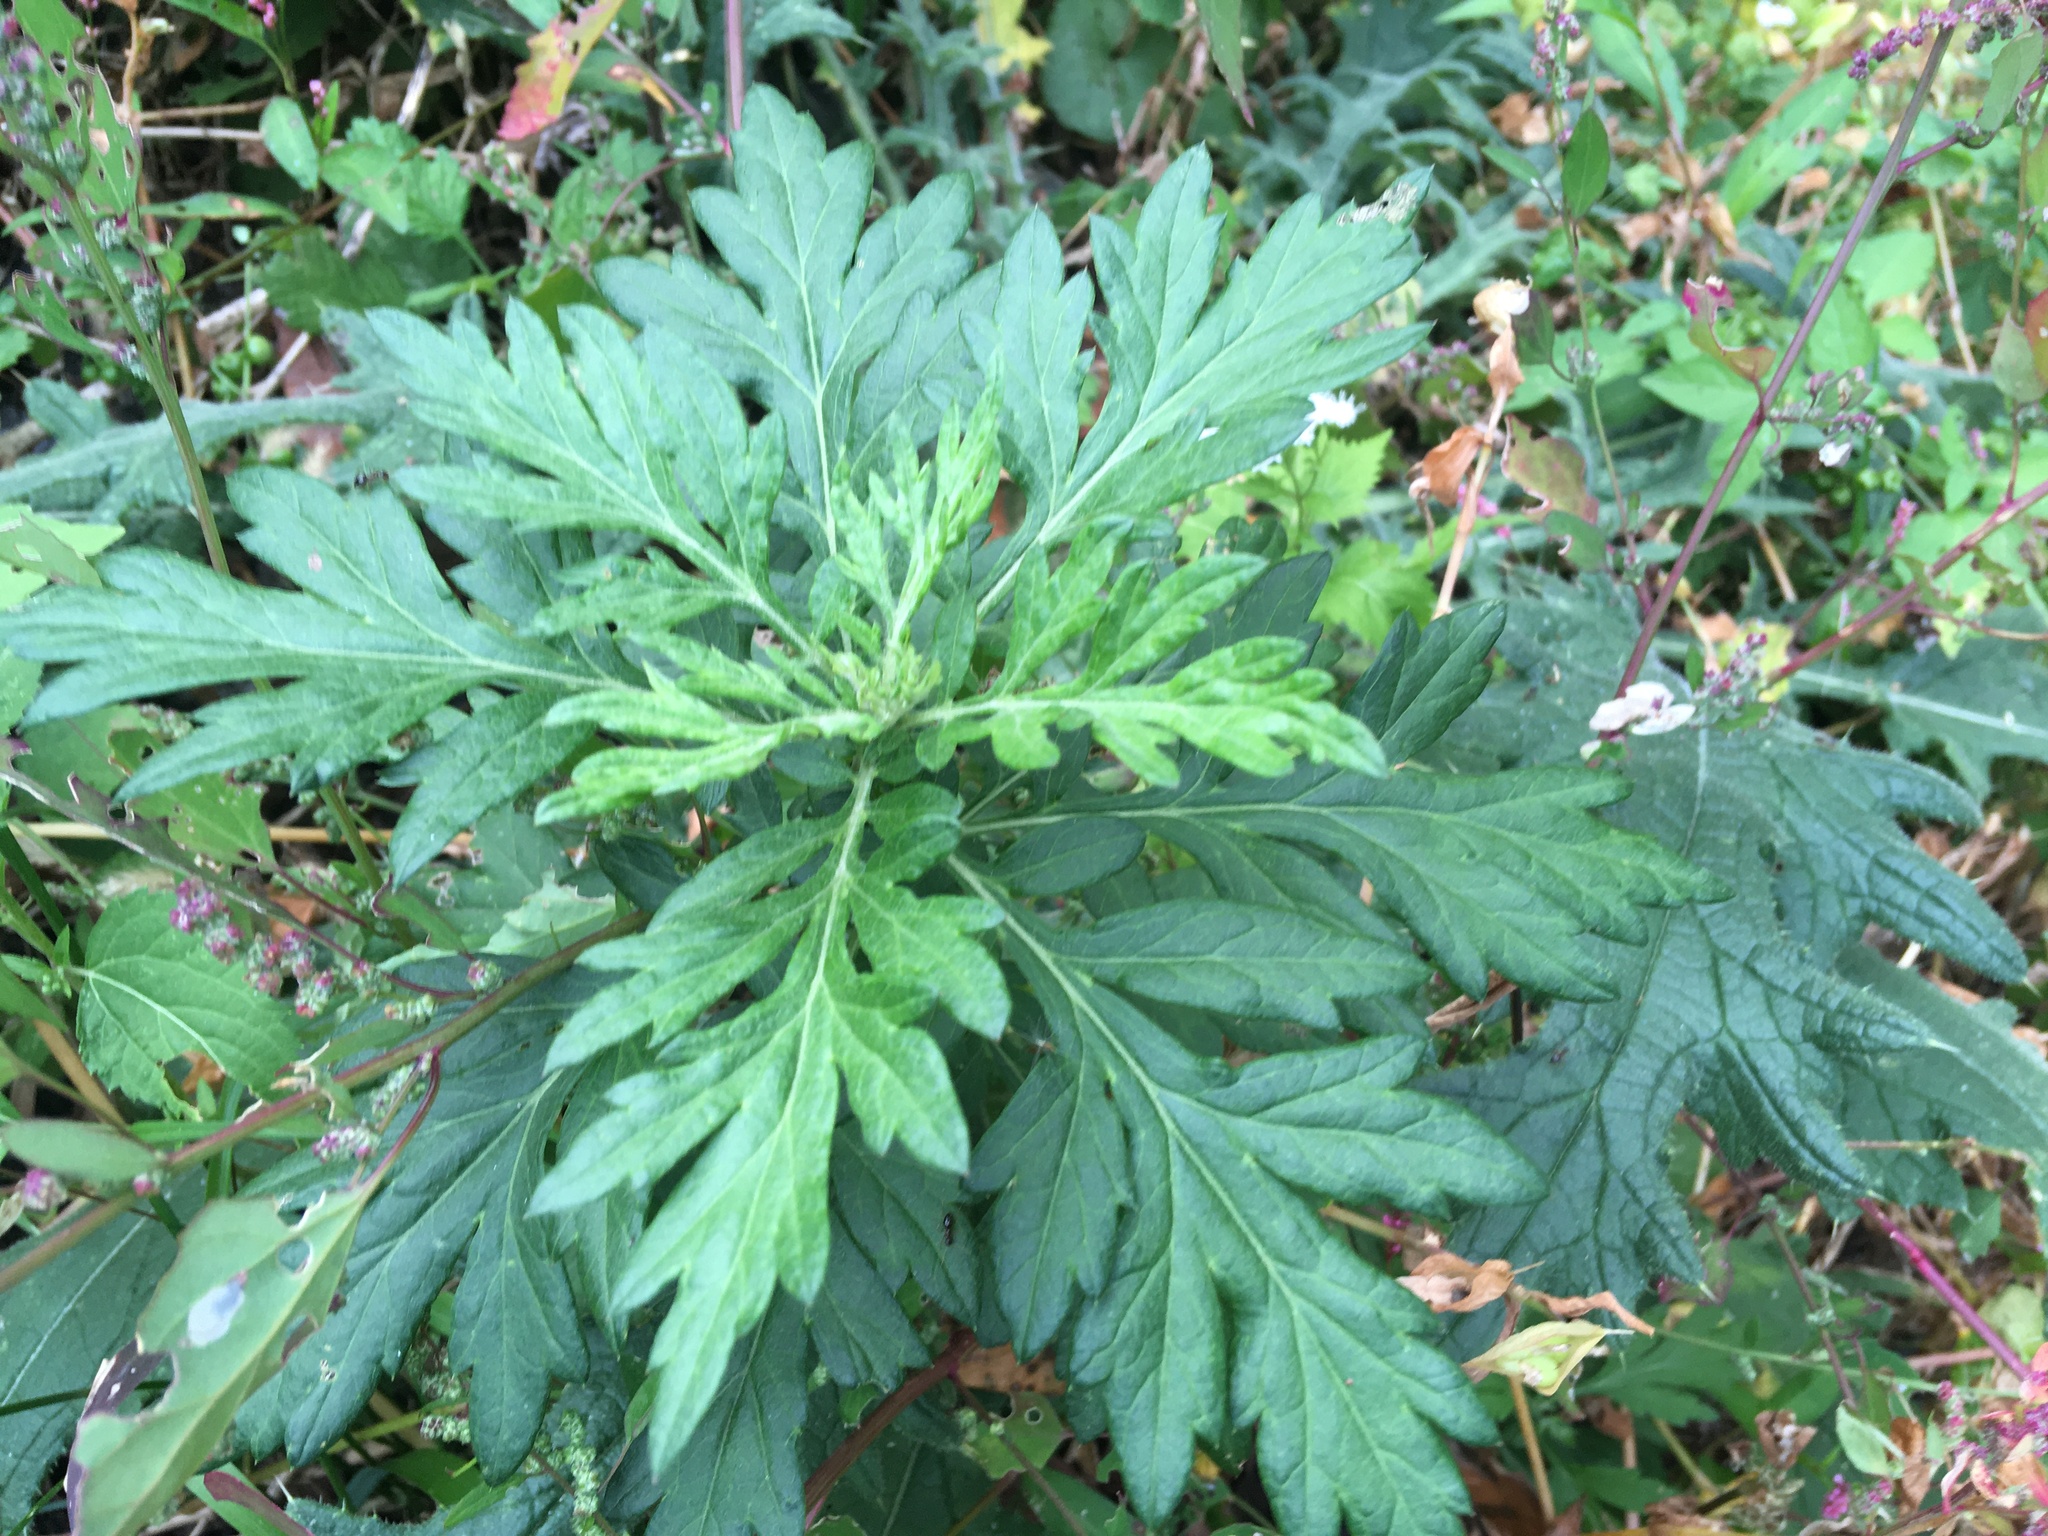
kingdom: Plantae
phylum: Tracheophyta
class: Magnoliopsida
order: Asterales
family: Asteraceae
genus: Artemisia
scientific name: Artemisia vulgaris
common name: Mugwort
